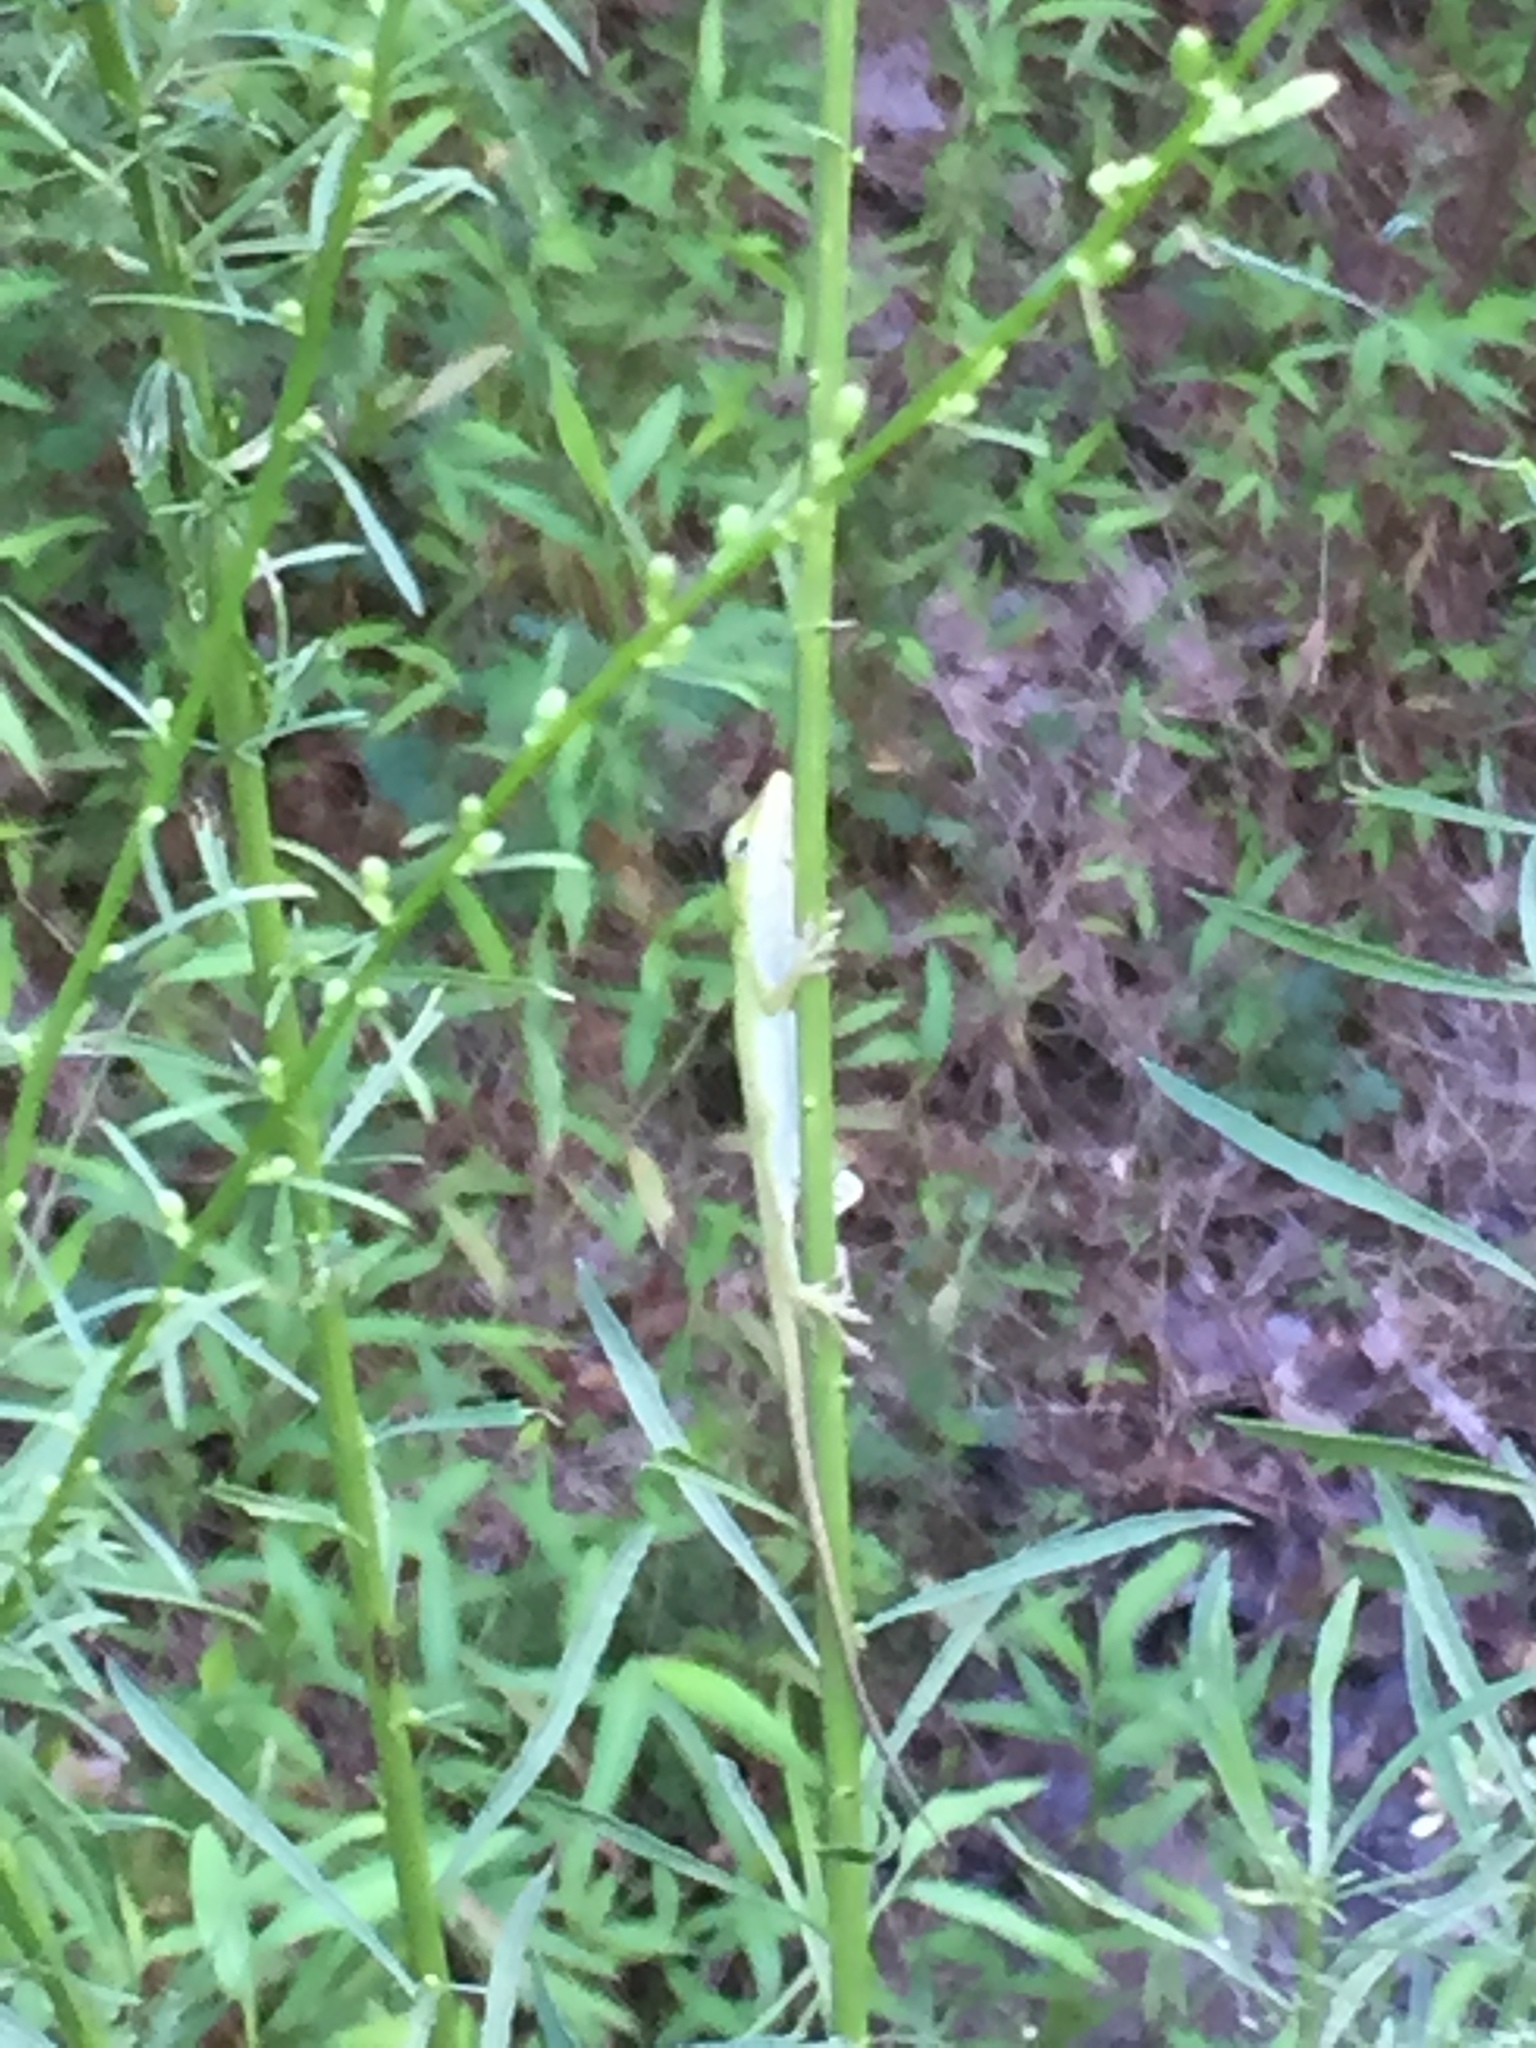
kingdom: Animalia
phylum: Chordata
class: Squamata
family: Dactyloidae
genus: Anolis
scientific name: Anolis carolinensis
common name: Green anole
